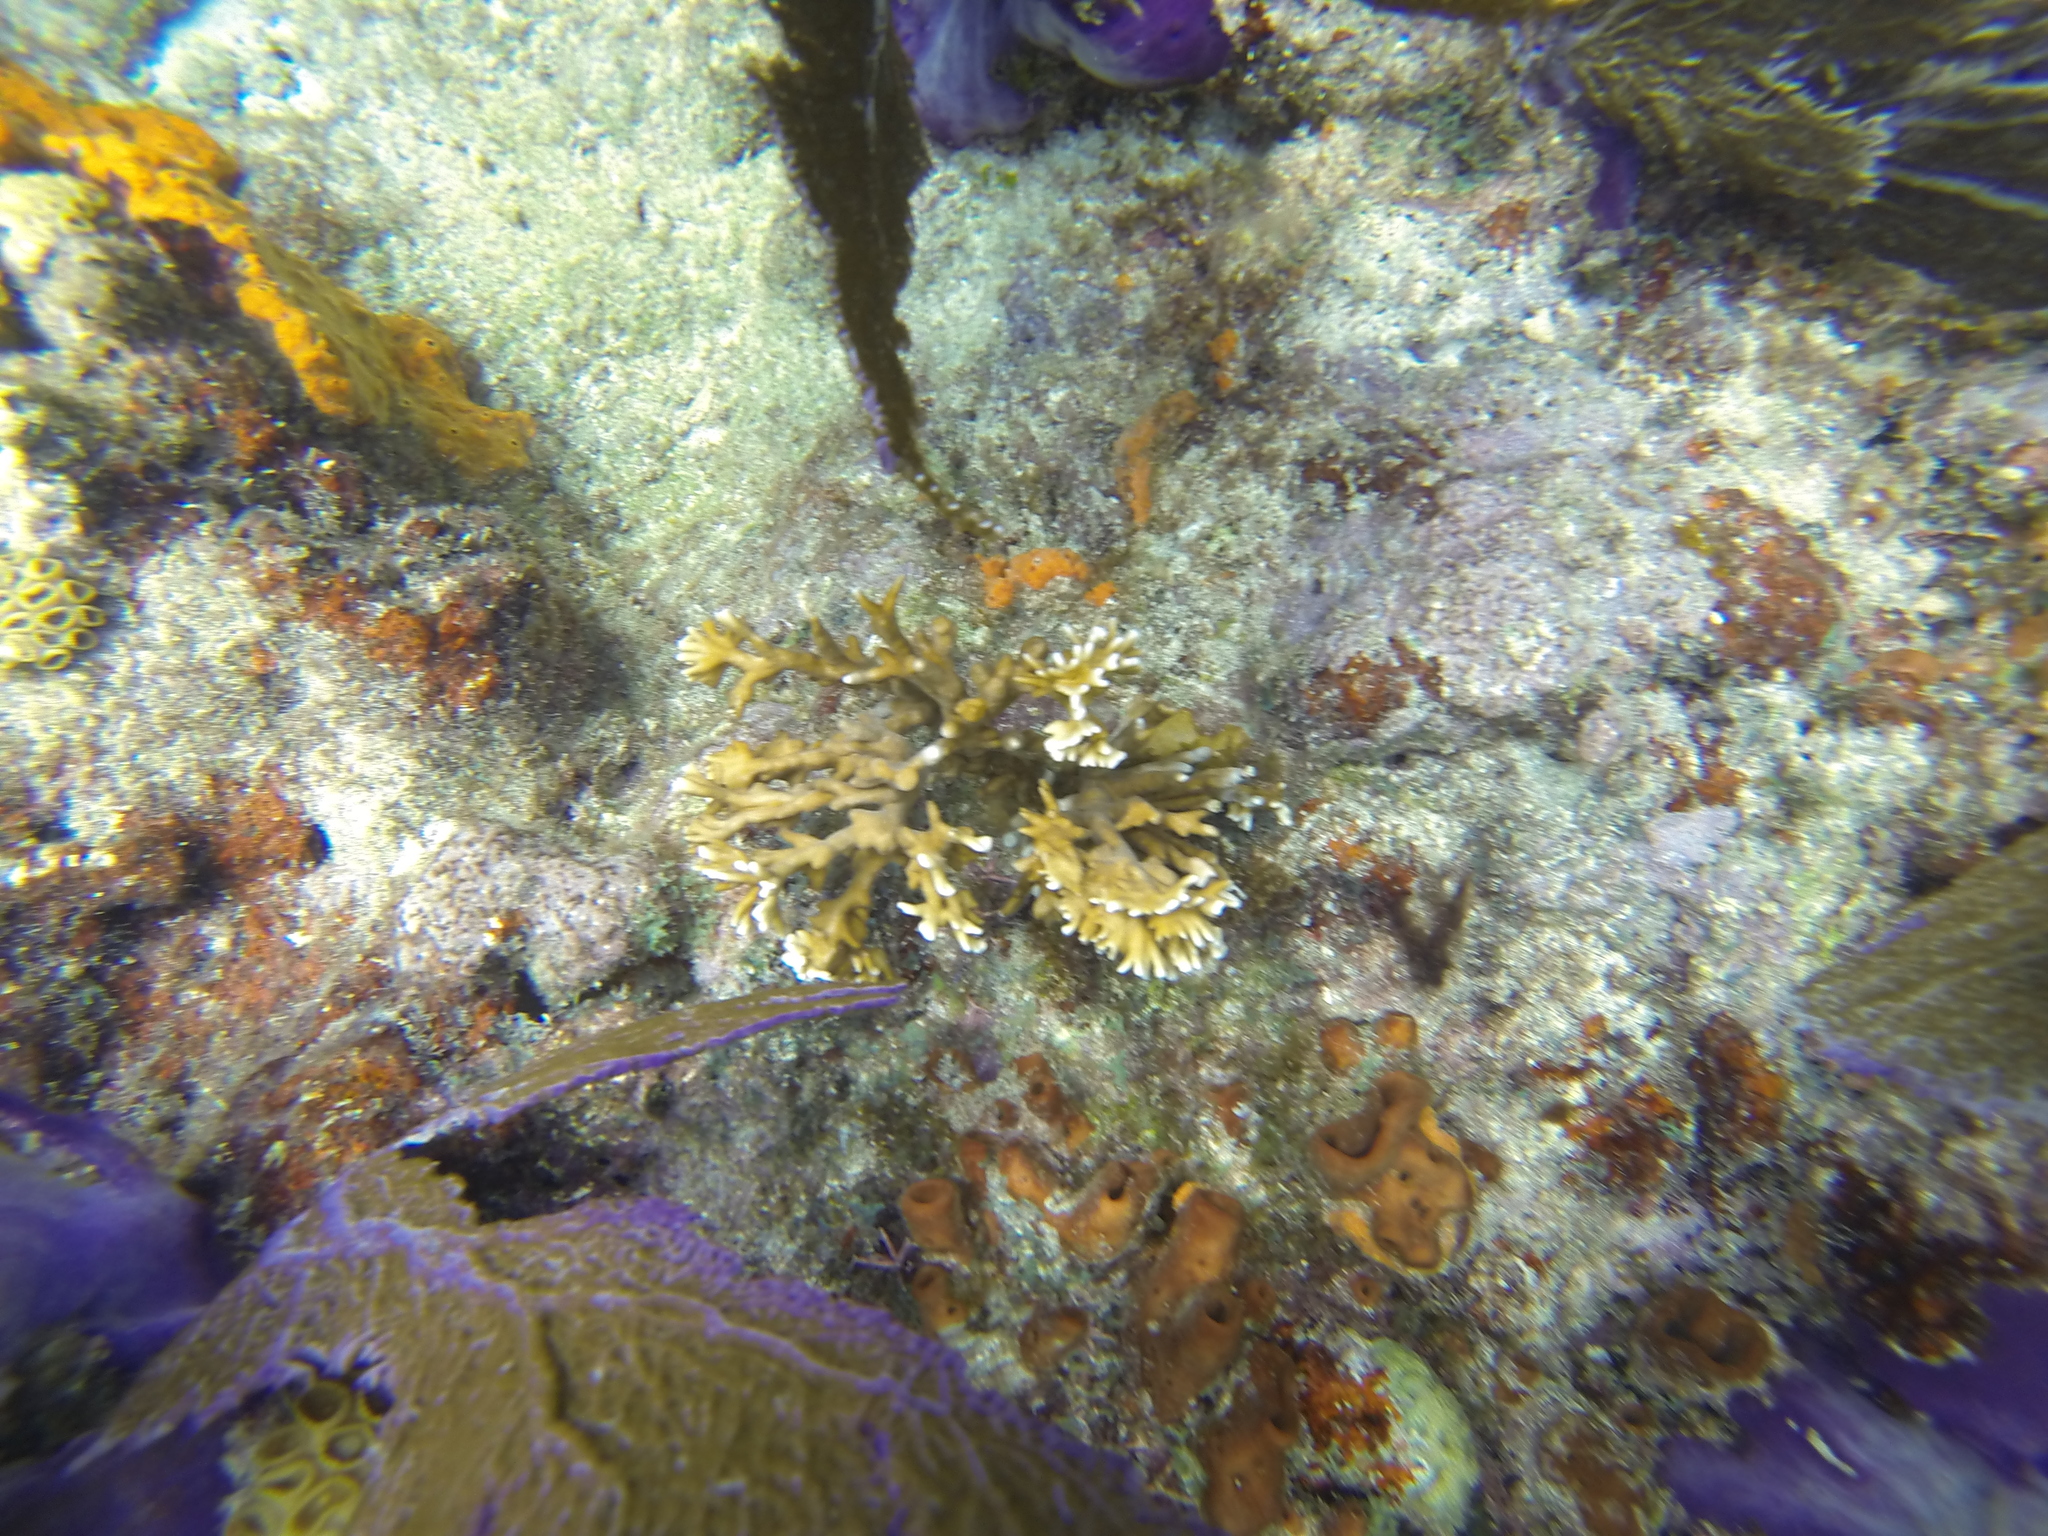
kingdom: Animalia
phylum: Cnidaria
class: Hydrozoa
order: Anthoathecata
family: Milleporidae
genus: Millepora
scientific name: Millepora alcicornis
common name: Branching fire coral
